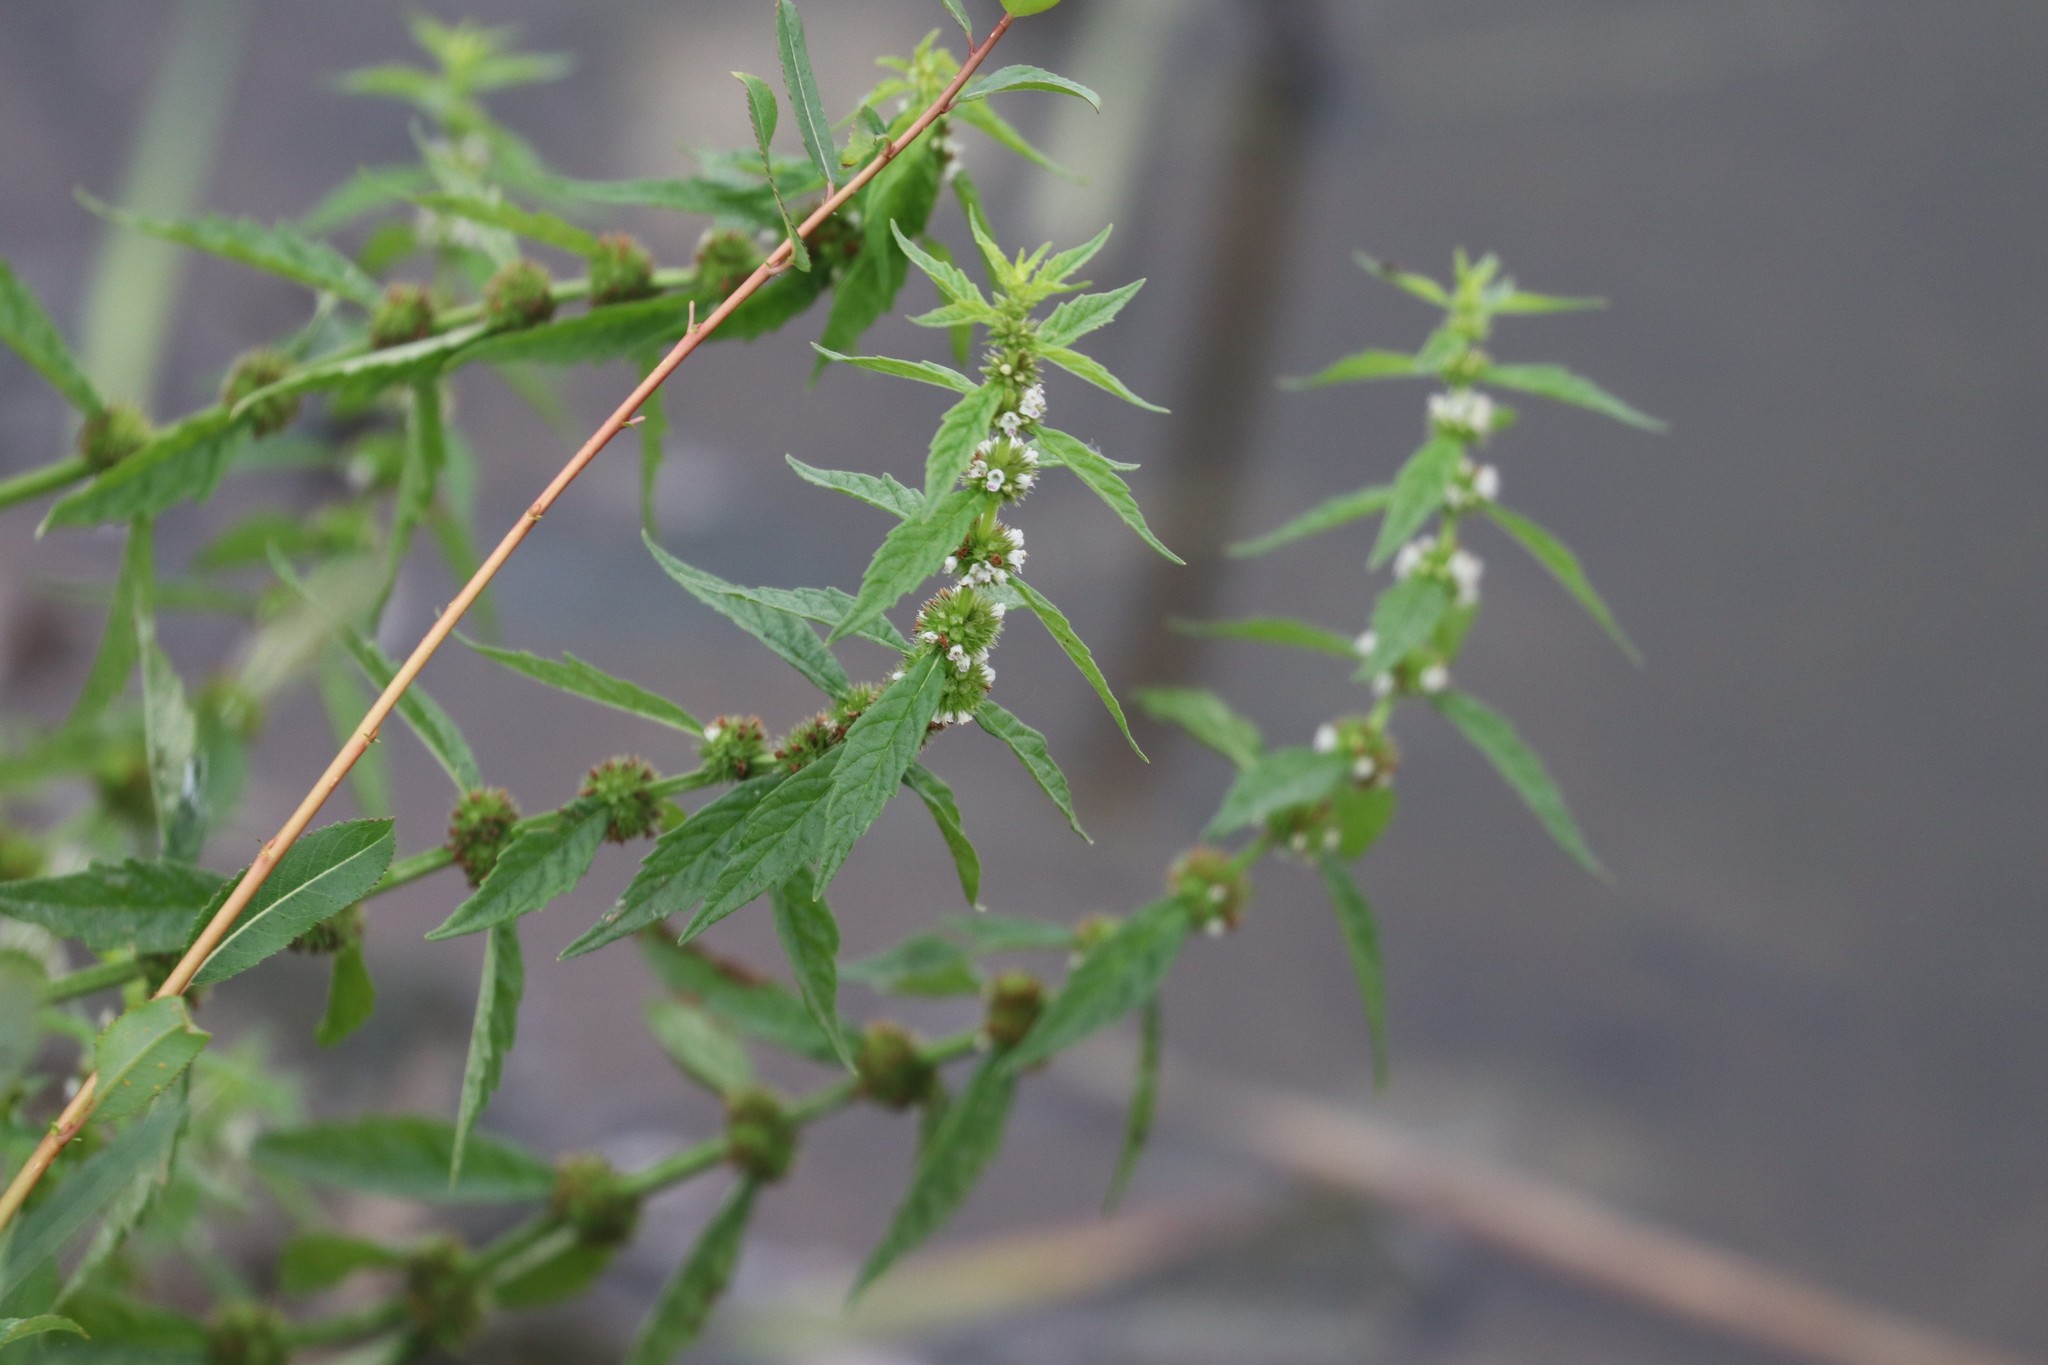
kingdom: Plantae
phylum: Tracheophyta
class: Magnoliopsida
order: Lamiales
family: Lamiaceae
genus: Lycopus
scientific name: Lycopus europaeus
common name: European bugleweed
